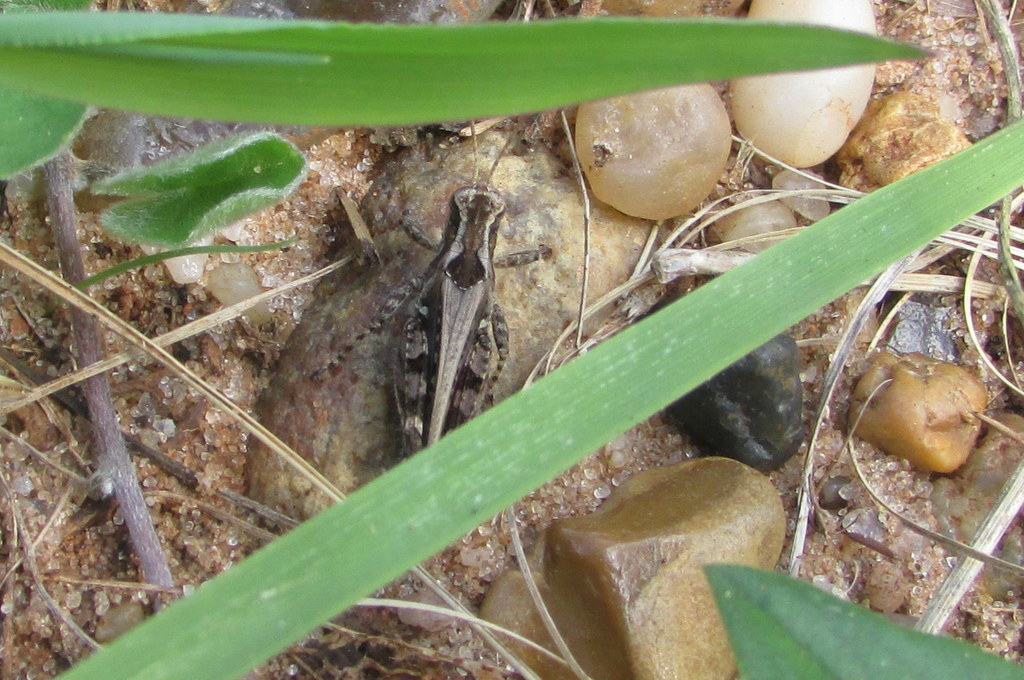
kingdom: Animalia
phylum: Arthropoda
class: Insecta
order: Orthoptera
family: Acrididae
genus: Baeacris
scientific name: Baeacris
